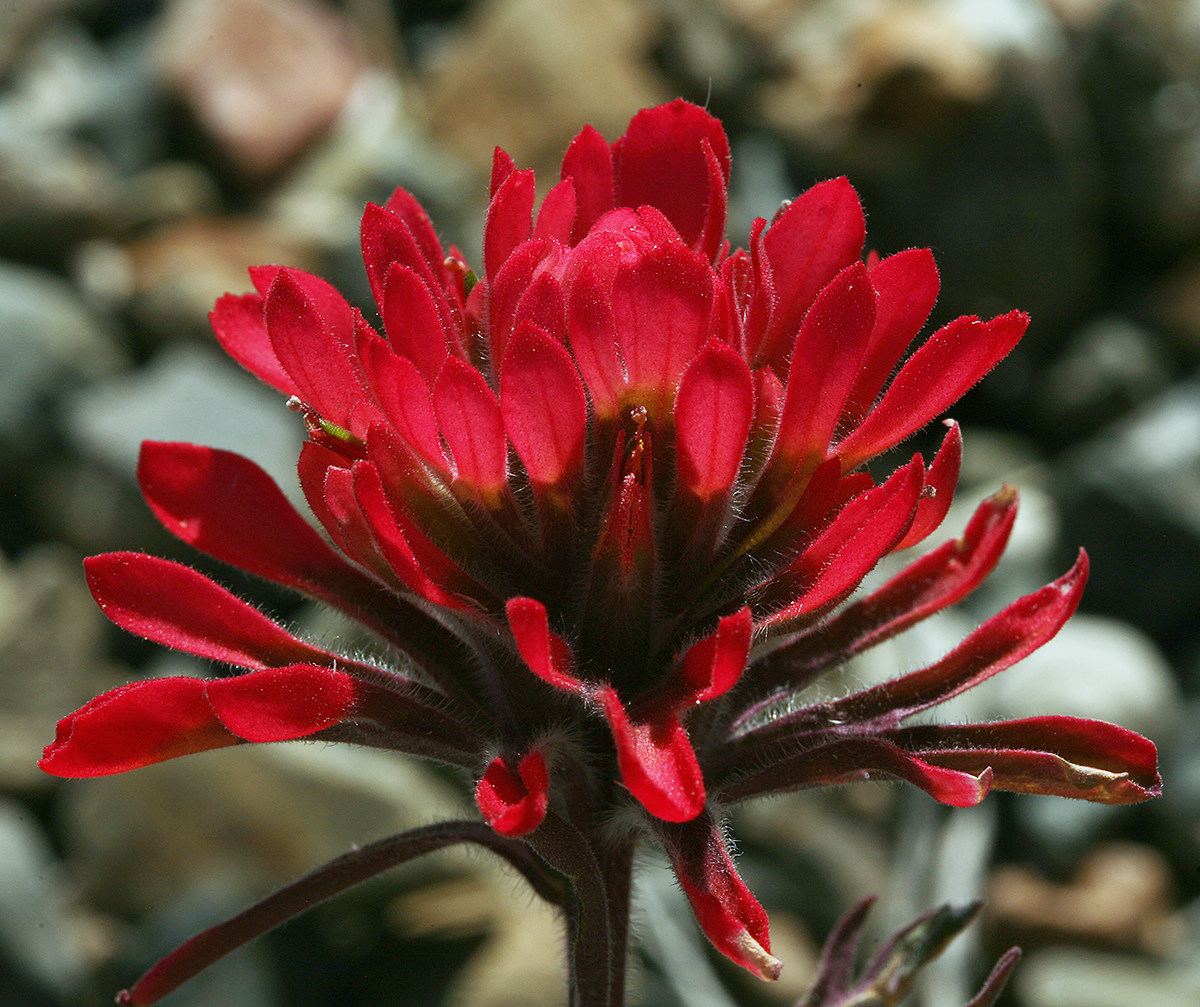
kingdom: Plantae
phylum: Tracheophyta
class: Magnoliopsida
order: Lamiales
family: Orobanchaceae
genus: Castilleja
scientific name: Castilleja chromosa
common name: Desert paintbrush
